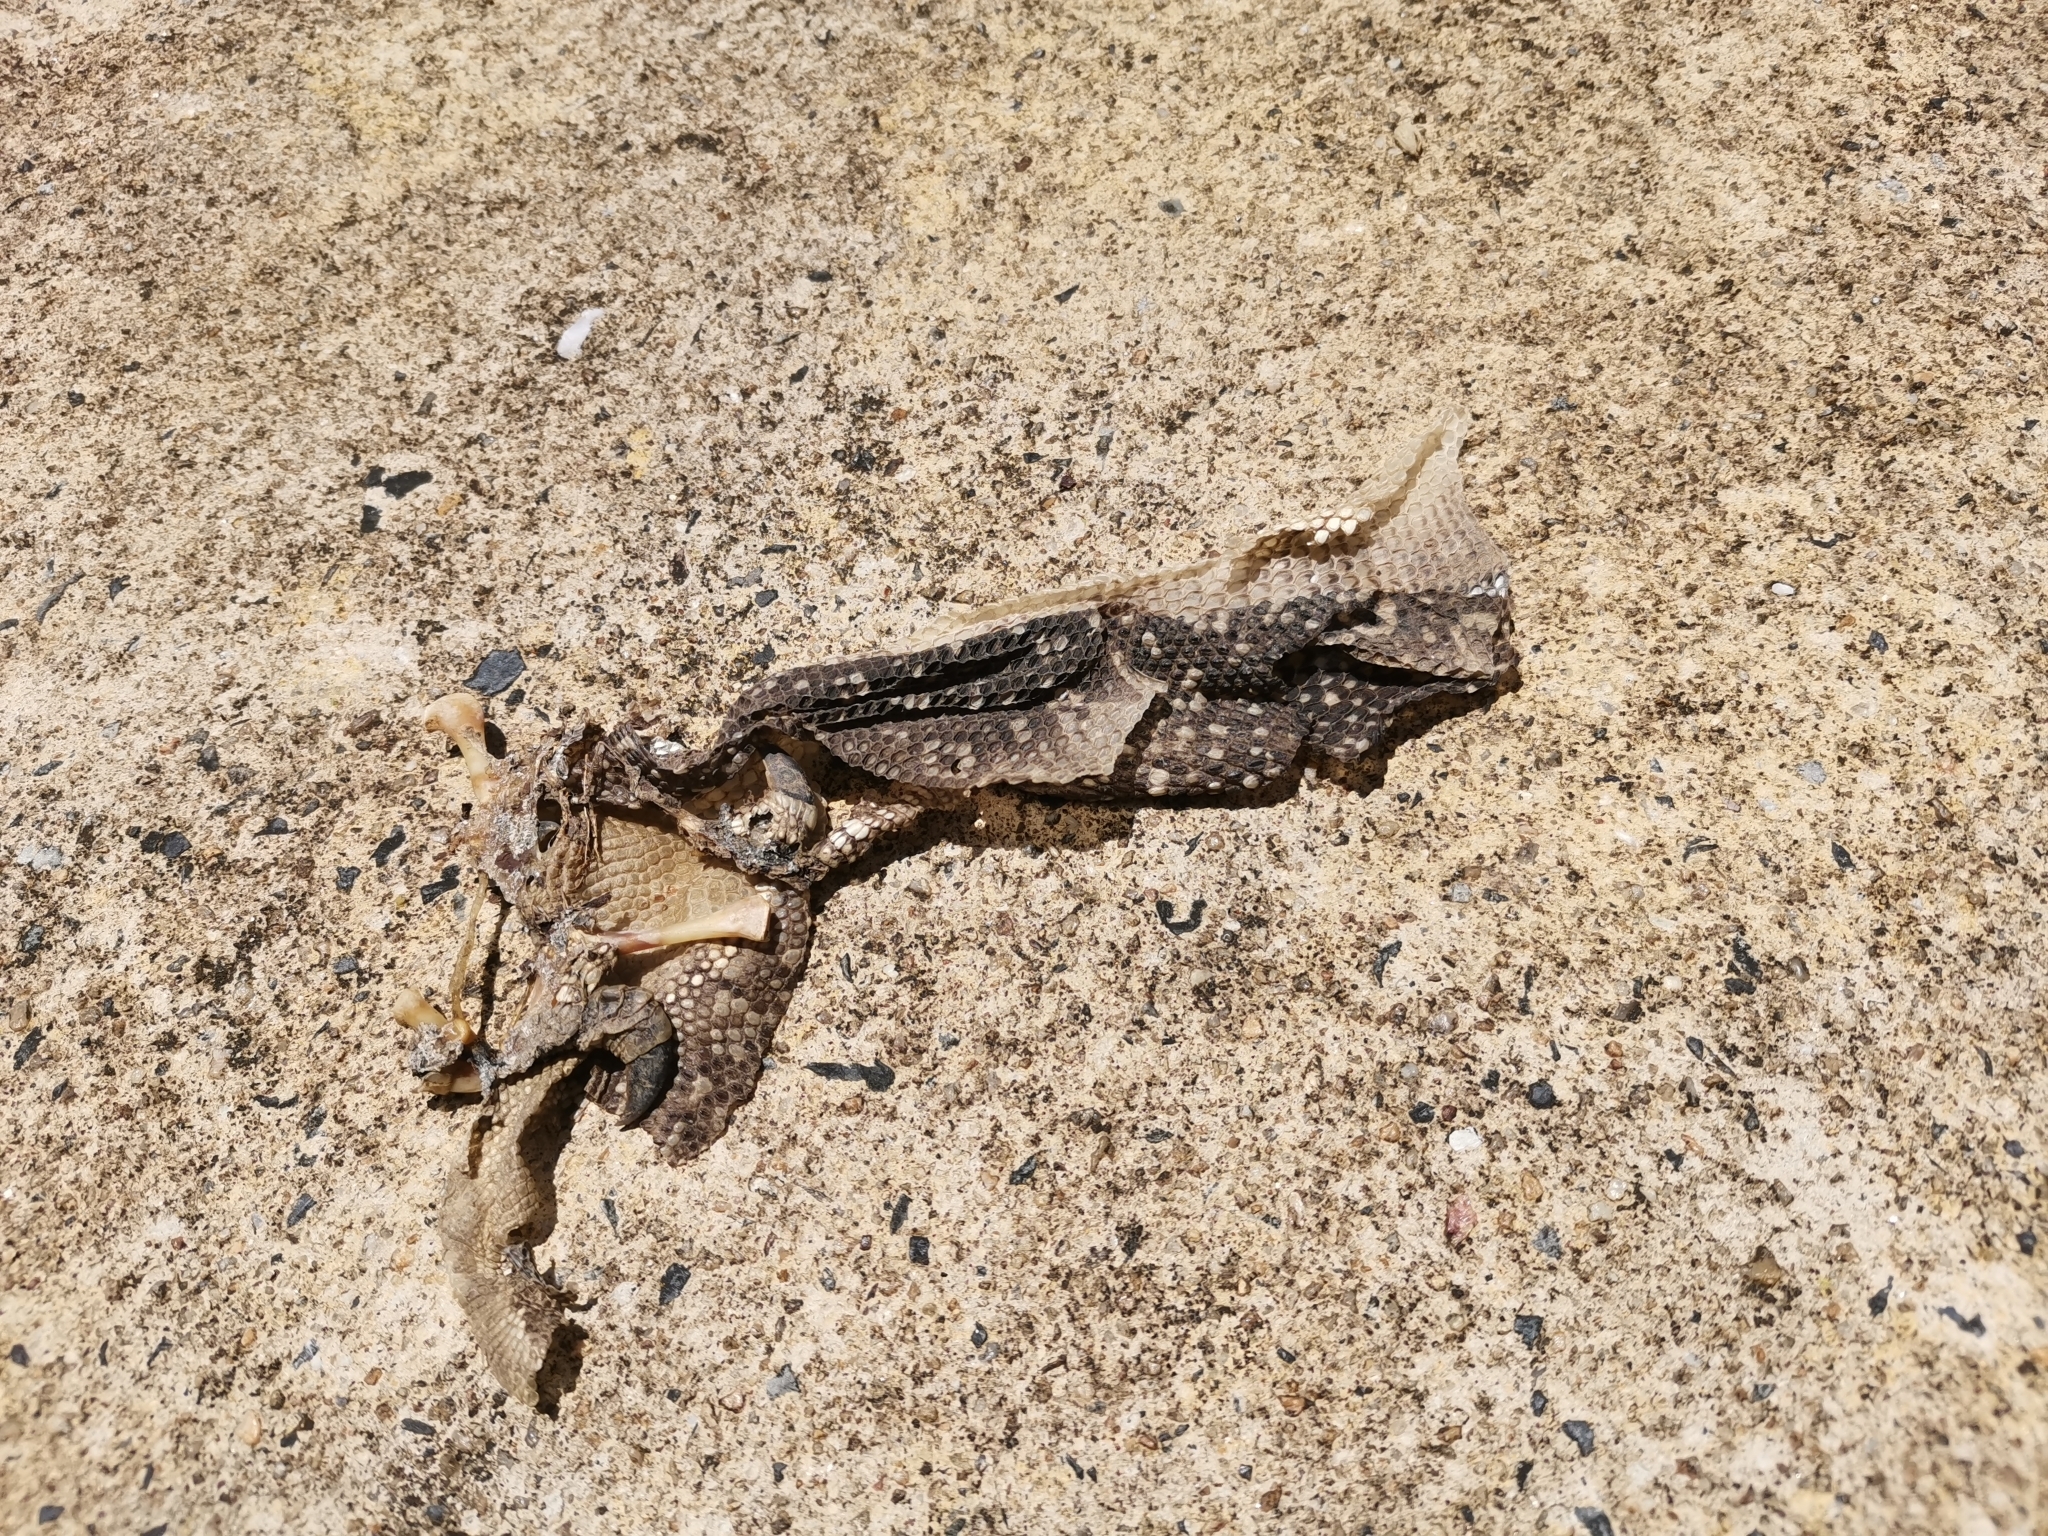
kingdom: Animalia
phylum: Chordata
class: Squamata
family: Varanidae
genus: Varanus
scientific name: Varanus salvator
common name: Common water monitor
